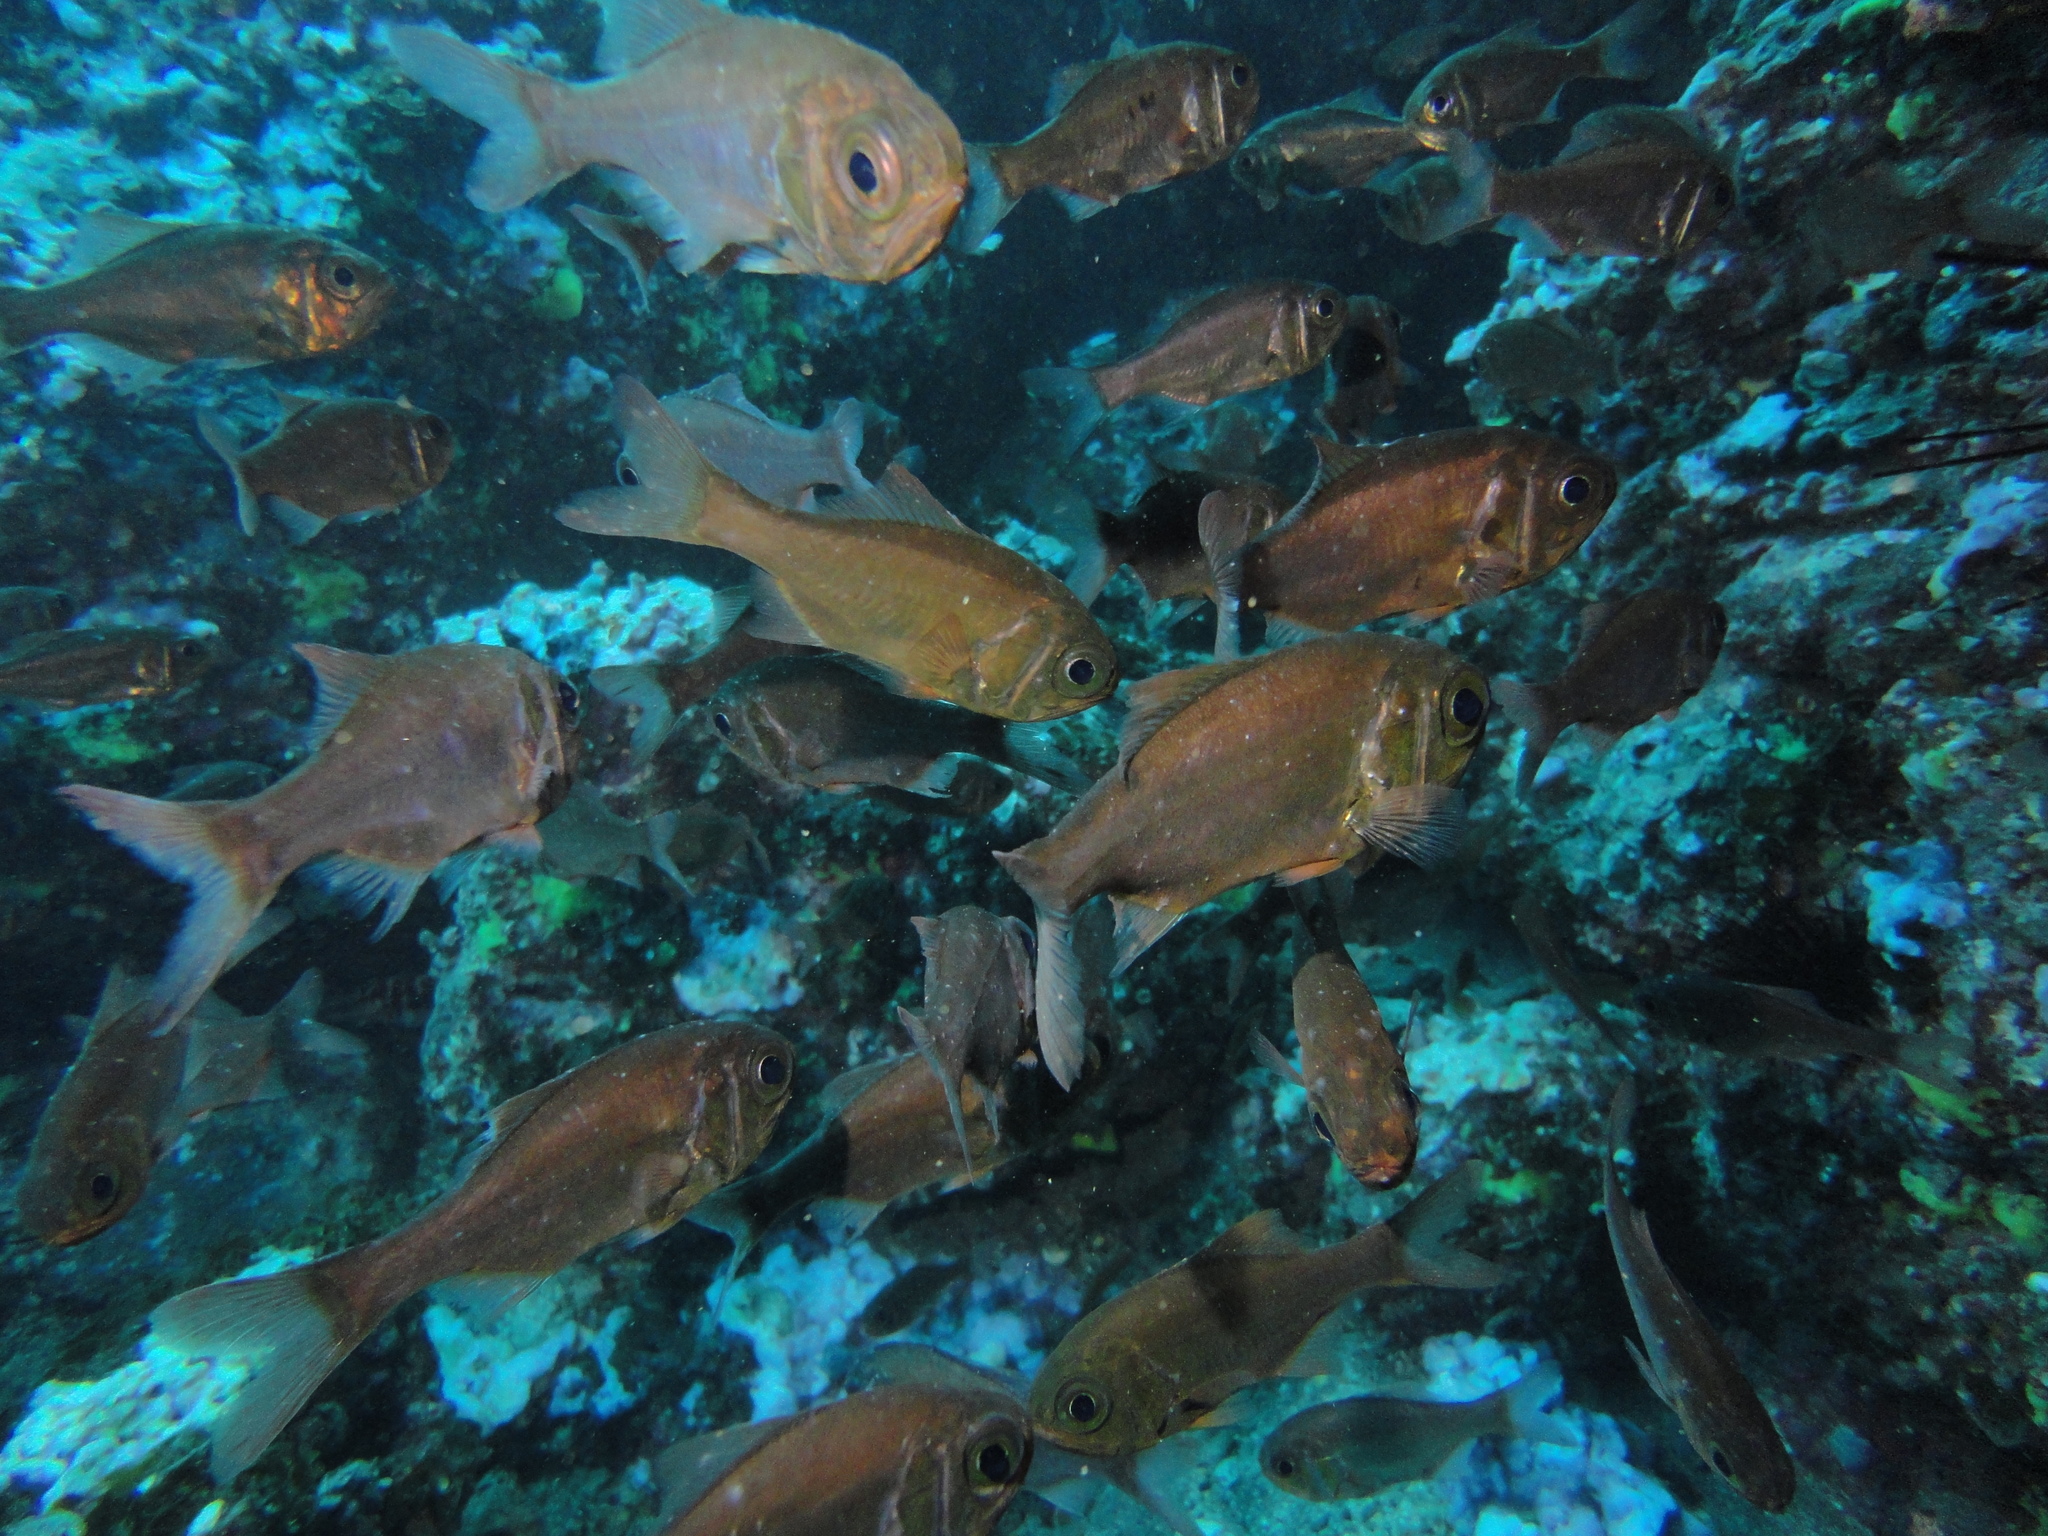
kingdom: Animalia
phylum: Chordata
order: Beryciformes
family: Trachichthyidae
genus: Paratrachichthys
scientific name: Paratrachichthys fernandezianus
